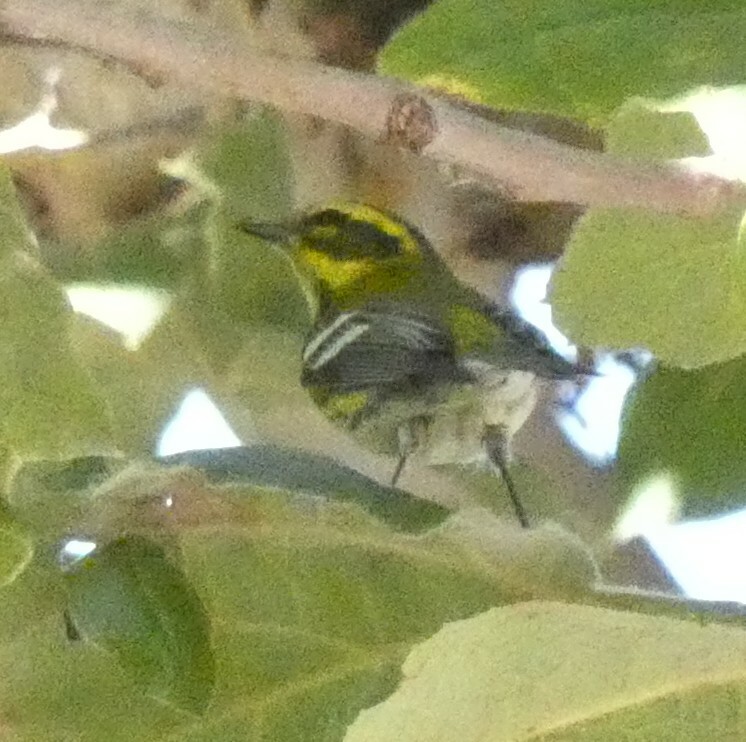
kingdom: Animalia
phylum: Chordata
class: Aves
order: Passeriformes
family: Parulidae
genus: Setophaga
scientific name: Setophaga townsendi
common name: Townsend's warbler
